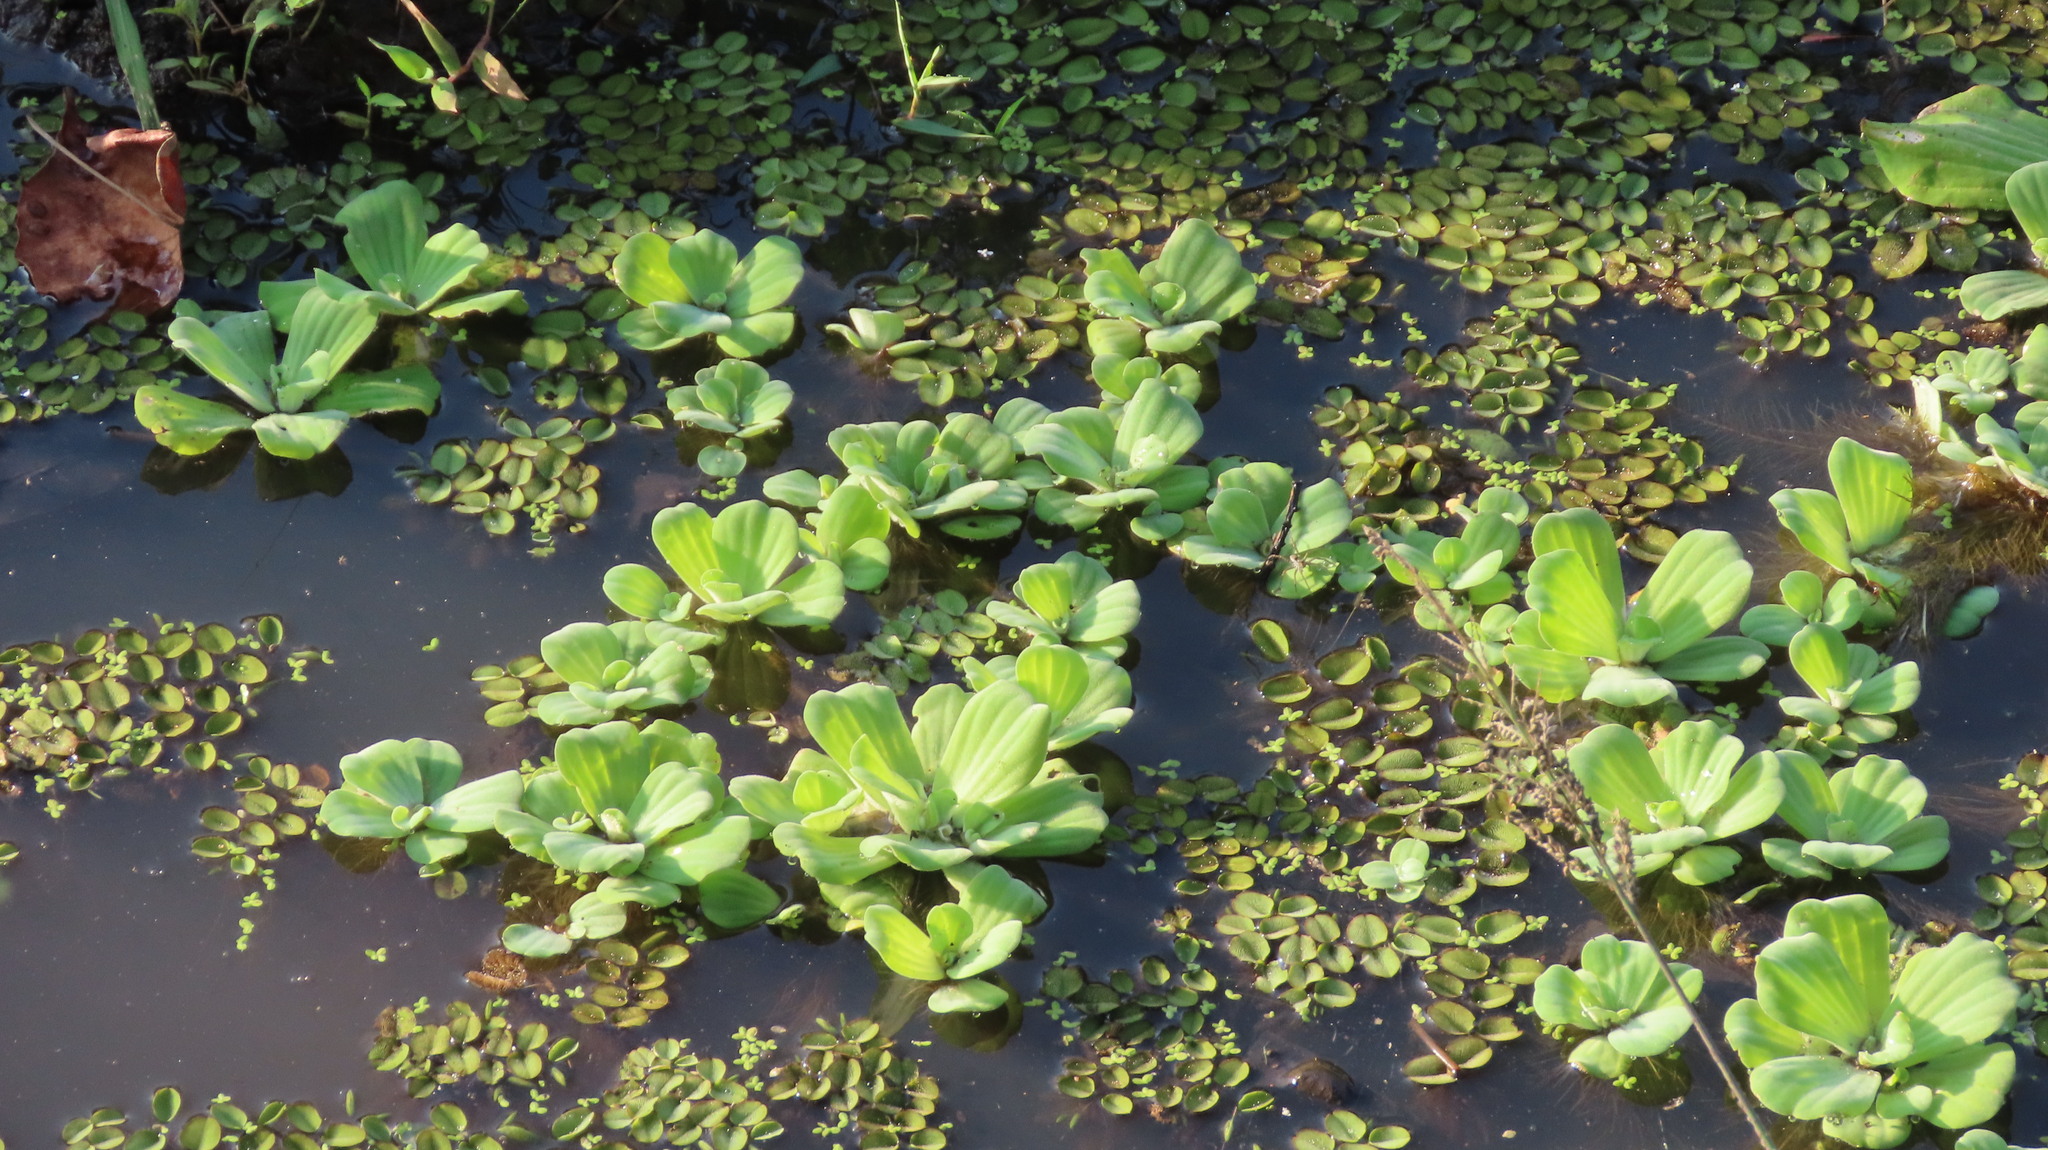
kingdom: Plantae
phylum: Tracheophyta
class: Liliopsida
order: Alismatales
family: Araceae
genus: Pistia
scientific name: Pistia stratiotes
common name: Water lettuce
